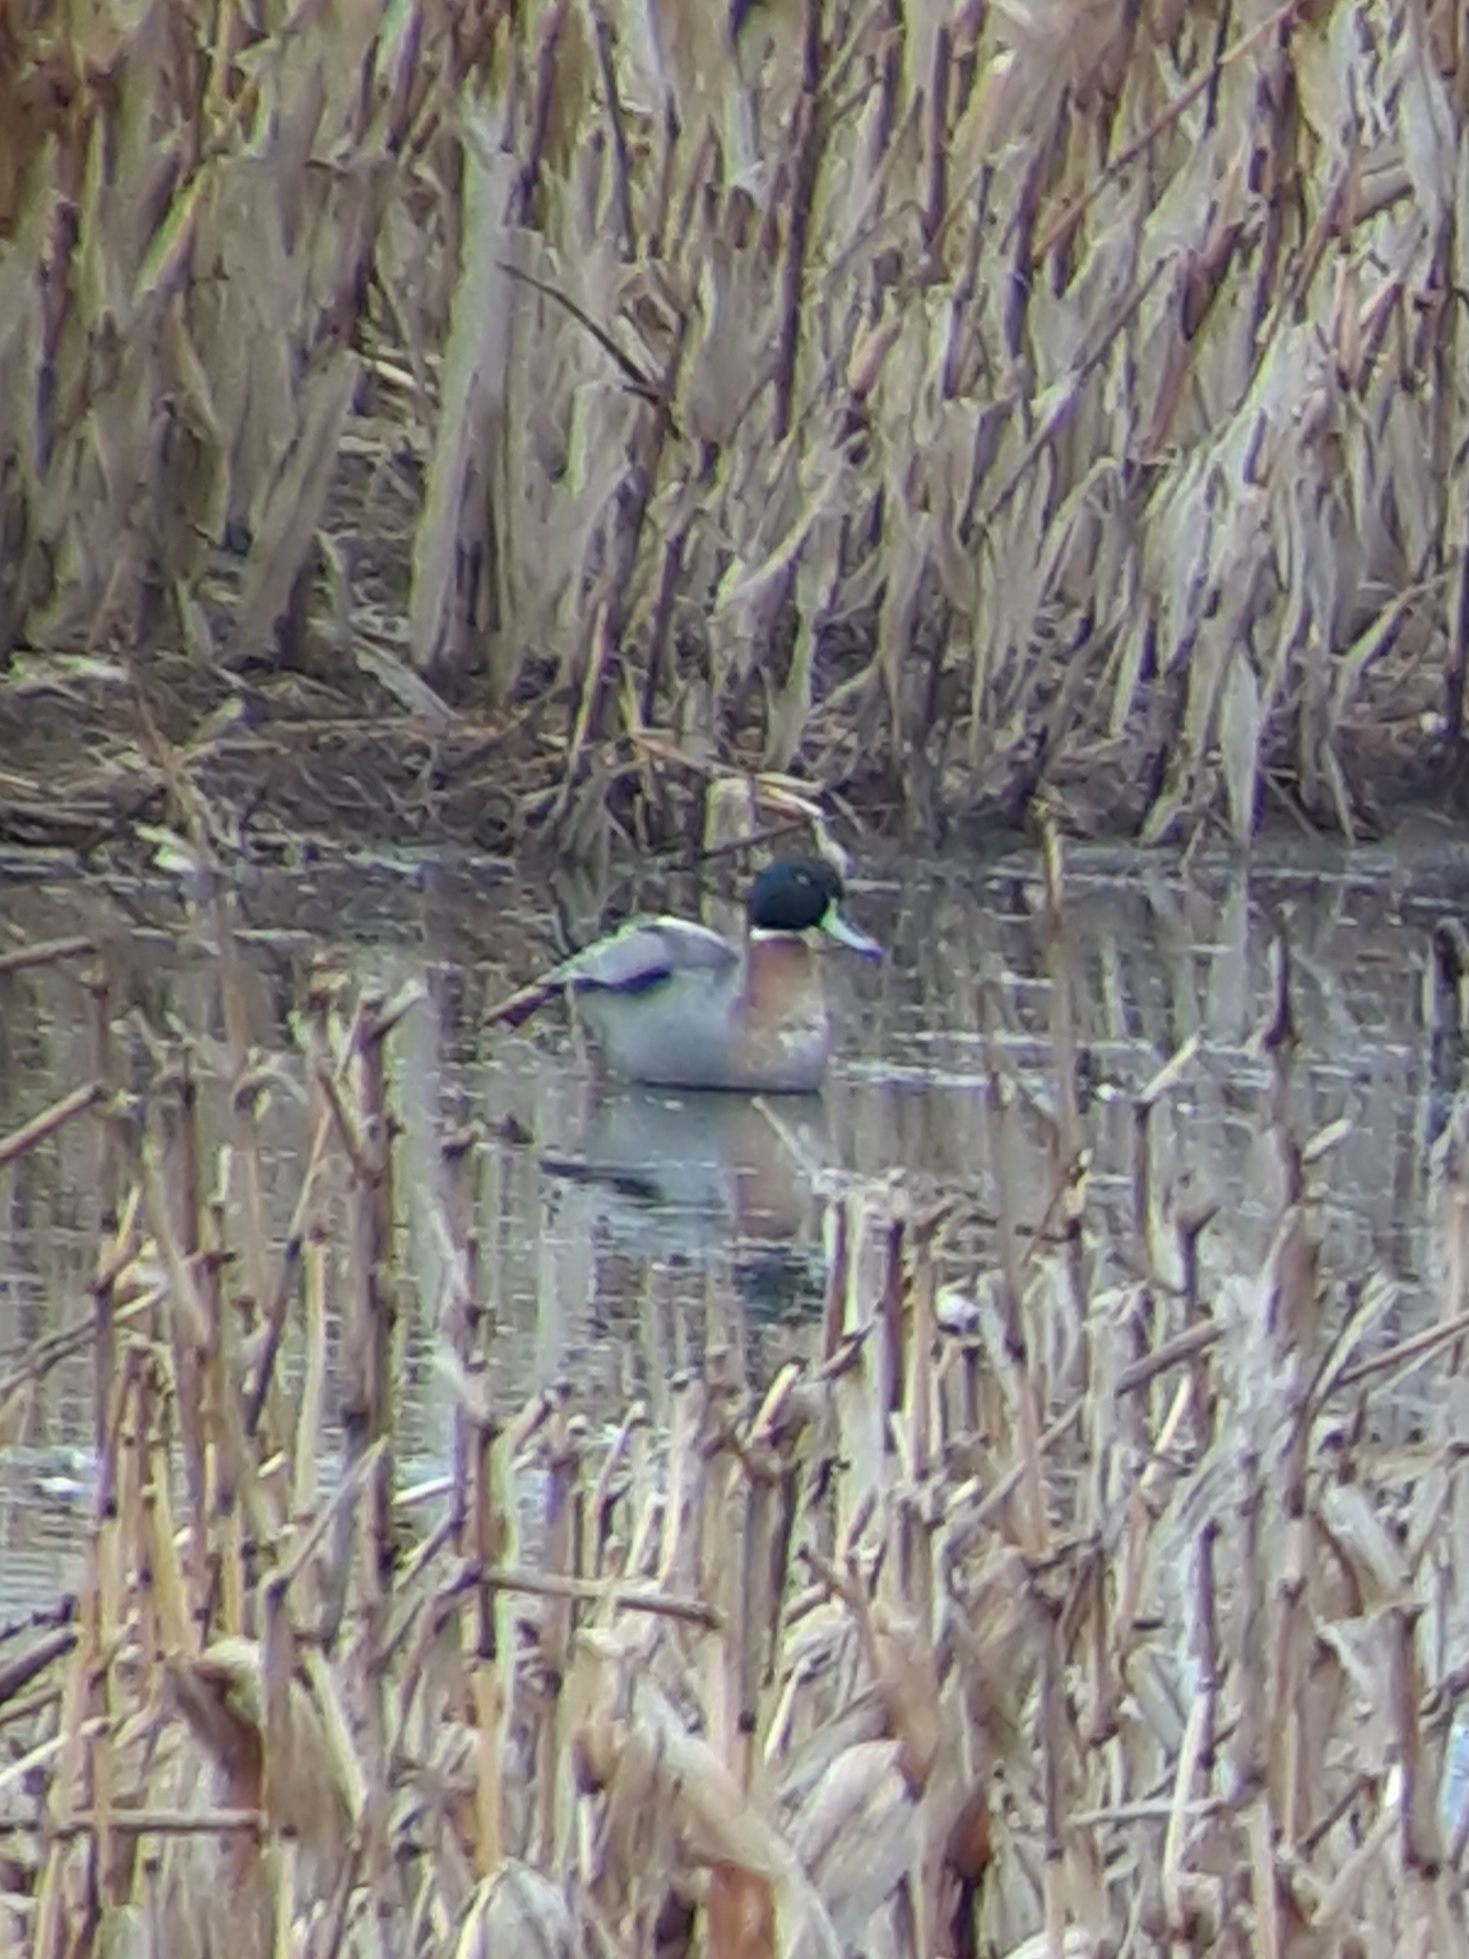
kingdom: Animalia
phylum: Chordata
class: Aves
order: Anseriformes
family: Anatidae
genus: Anas
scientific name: Anas
